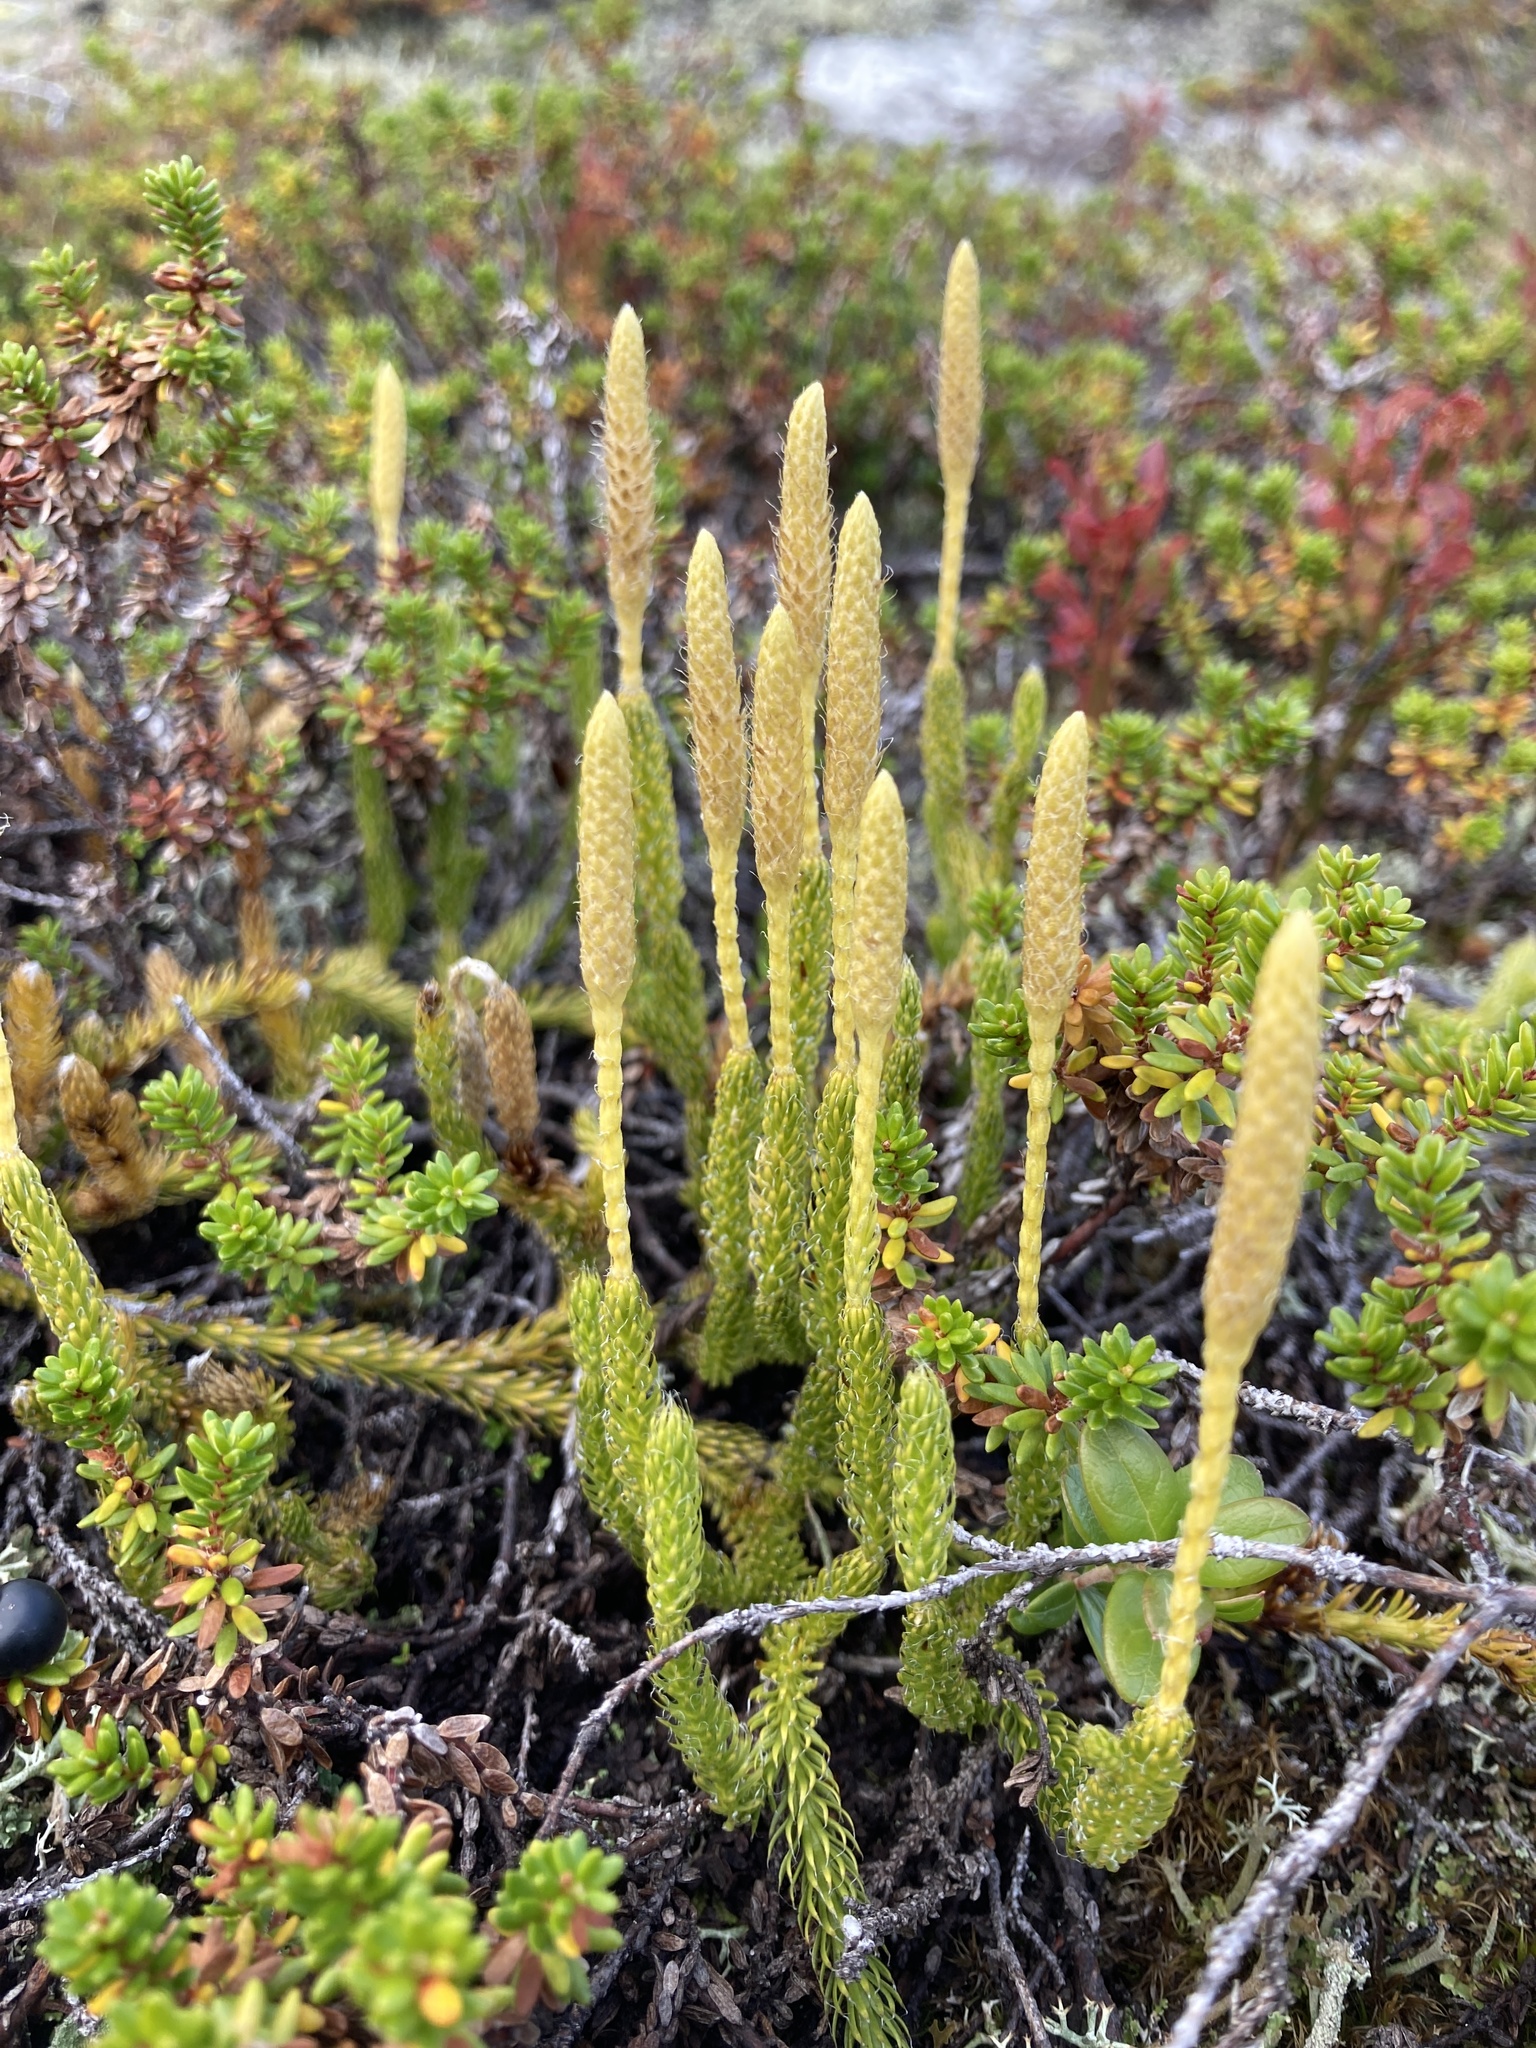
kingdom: Plantae
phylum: Tracheophyta
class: Lycopodiopsida
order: Lycopodiales
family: Lycopodiaceae
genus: Lycopodium
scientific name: Lycopodium clavatum
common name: Stag's-horn clubmoss
